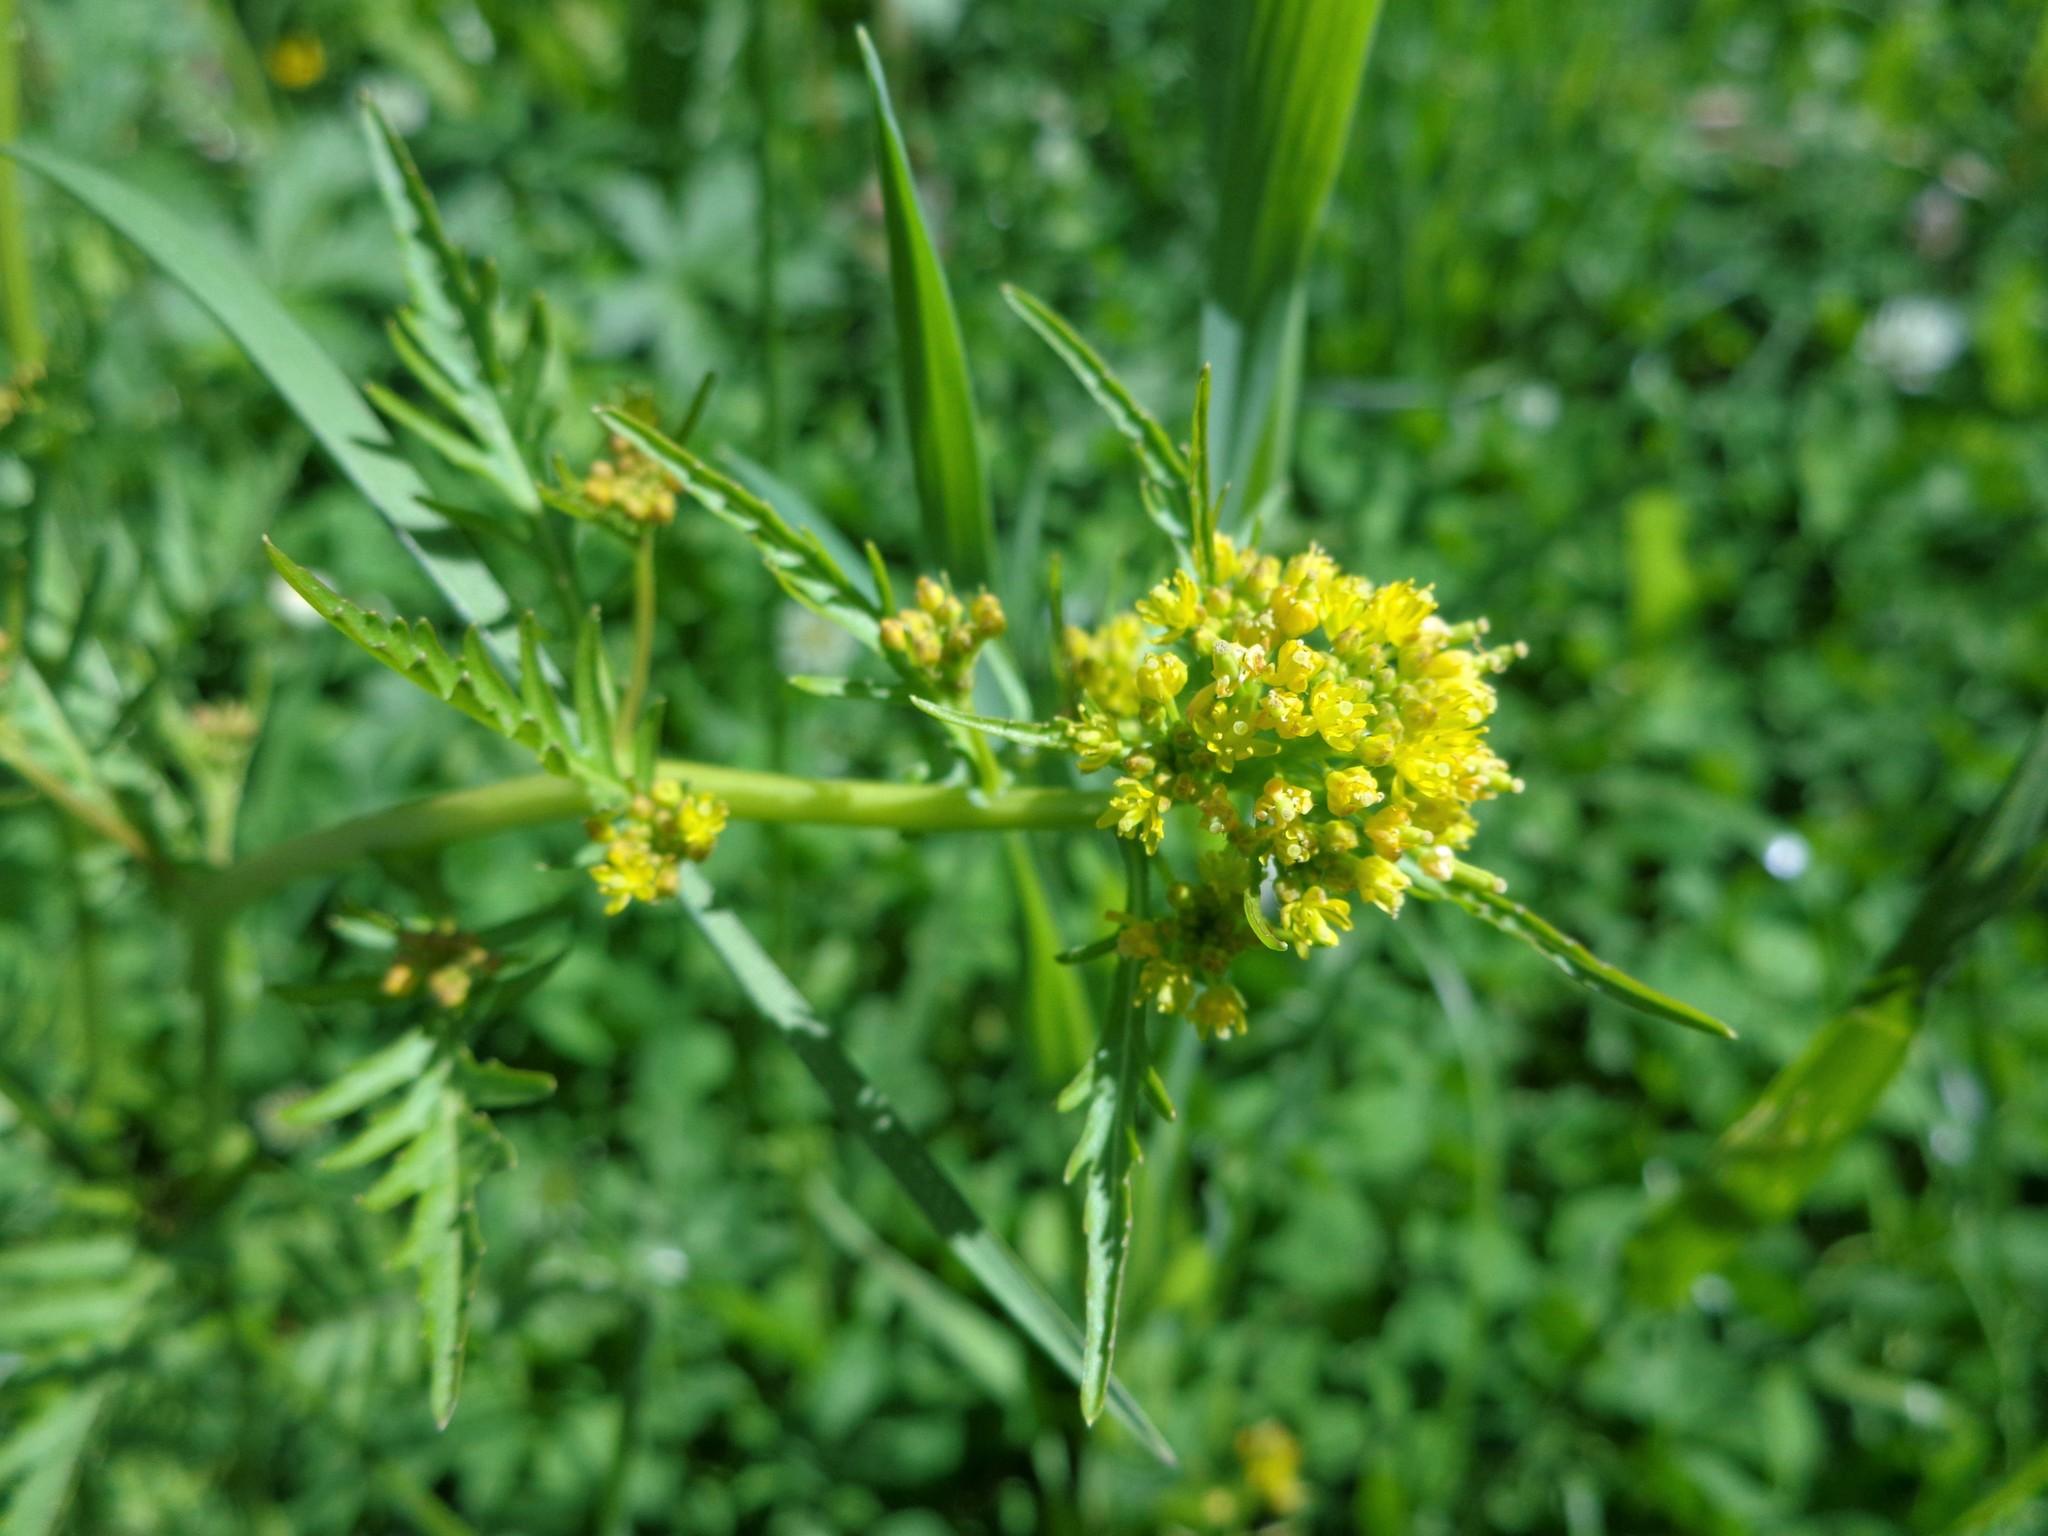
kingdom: Plantae
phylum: Tracheophyta
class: Magnoliopsida
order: Brassicales
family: Brassicaceae
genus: Rorippa
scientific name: Rorippa palustris
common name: Marsh yellow-cress
